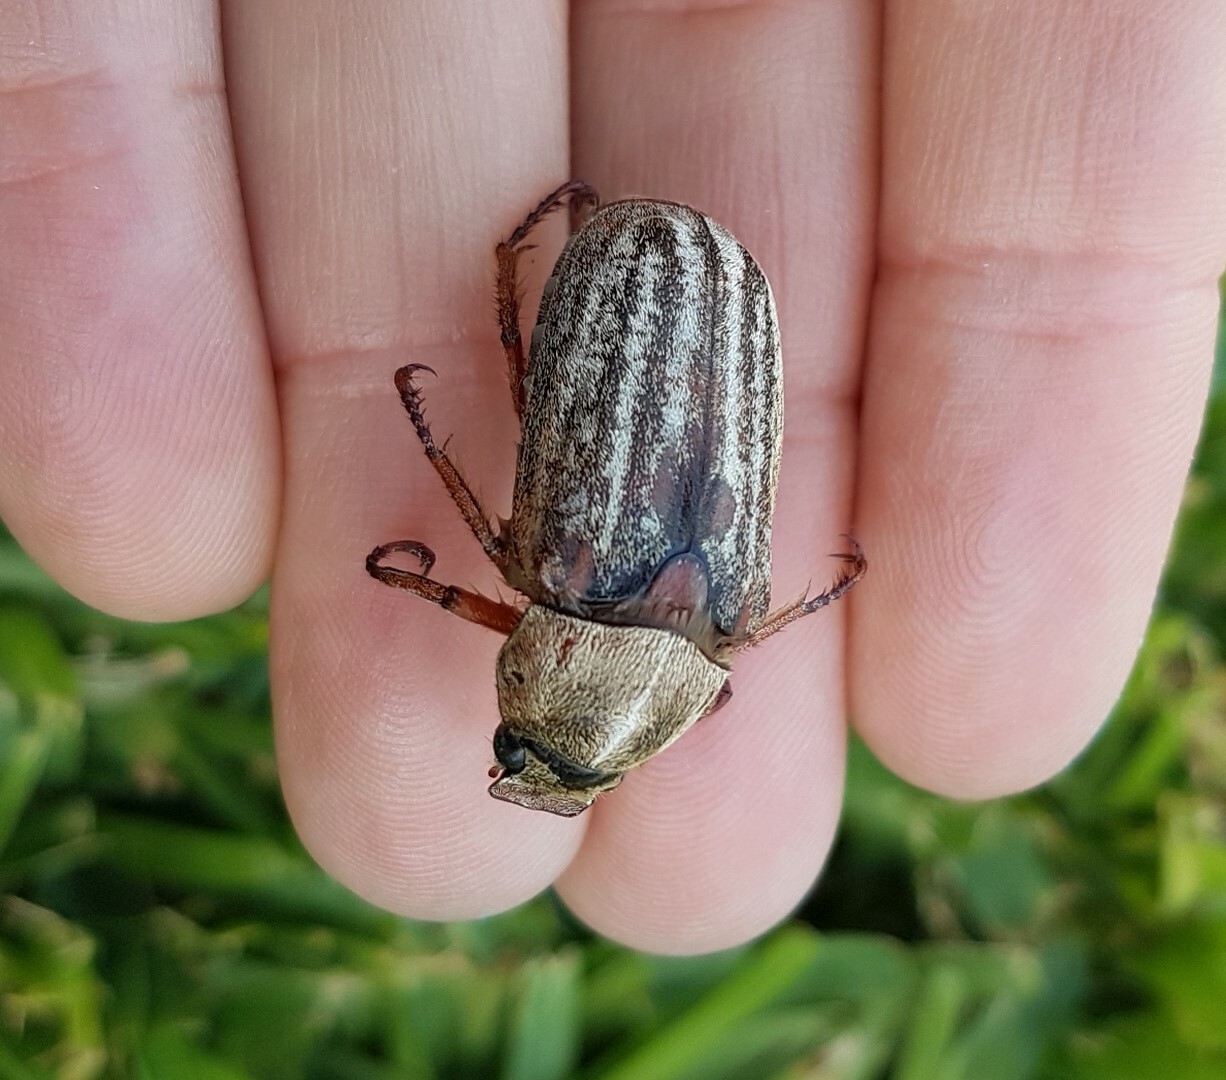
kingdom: Animalia
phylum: Arthropoda
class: Insecta
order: Coleoptera
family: Scarabaeidae
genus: Anoxia
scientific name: Anoxia australis
